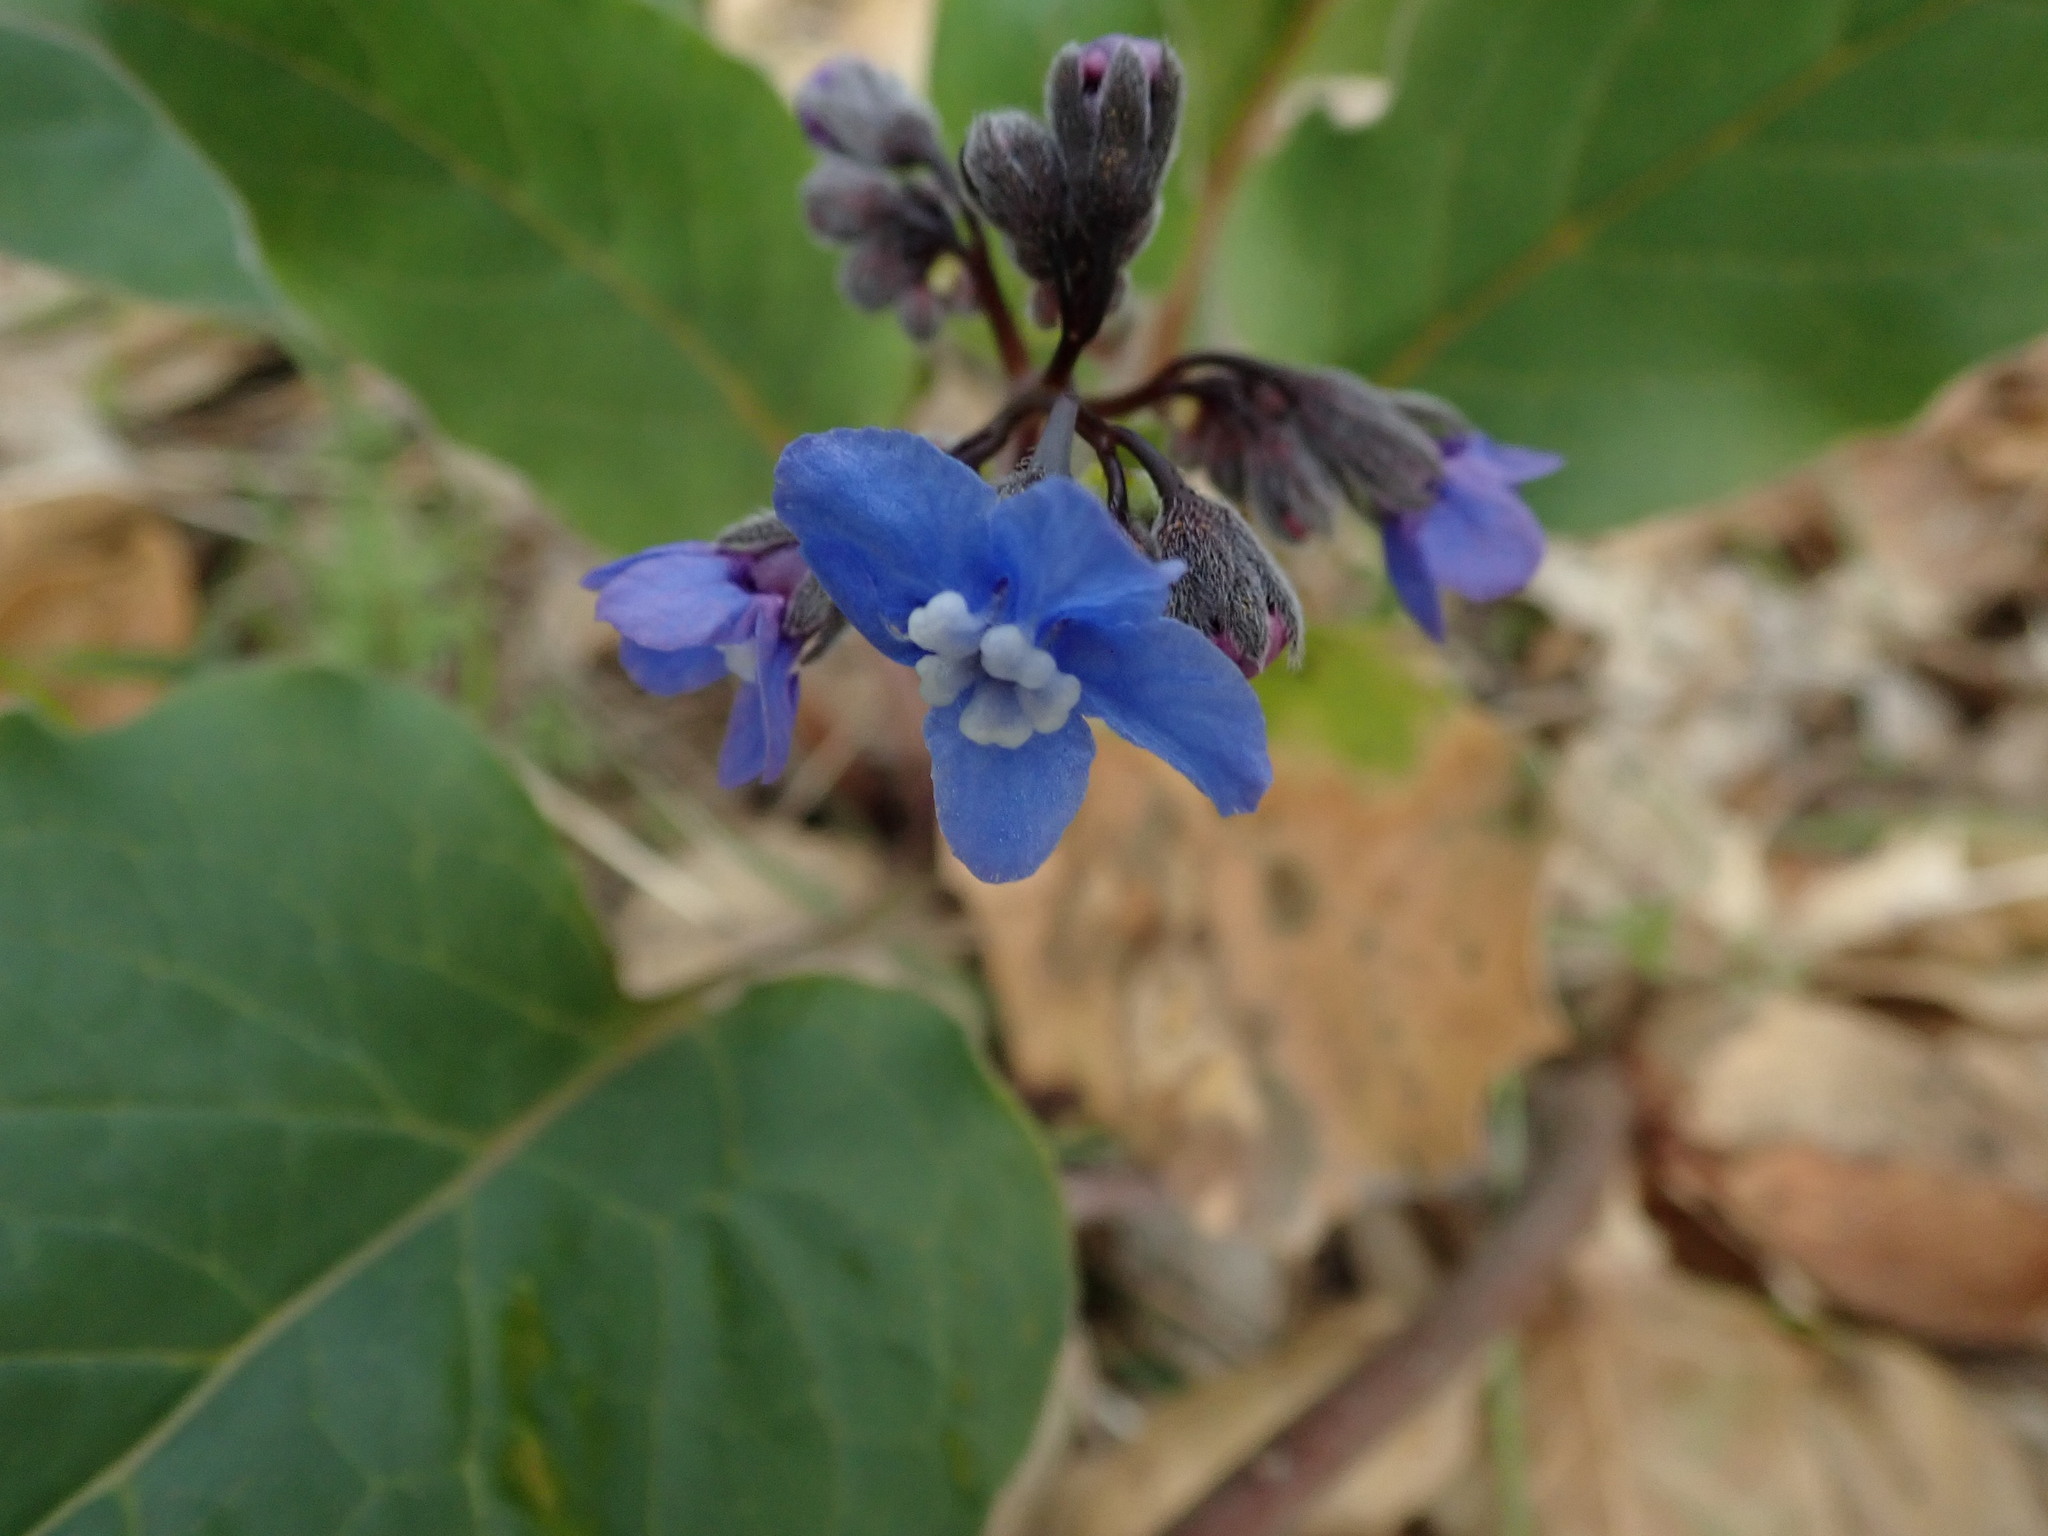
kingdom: Plantae
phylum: Tracheophyta
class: Magnoliopsida
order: Boraginales
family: Boraginaceae
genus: Adelinia
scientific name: Adelinia grande
